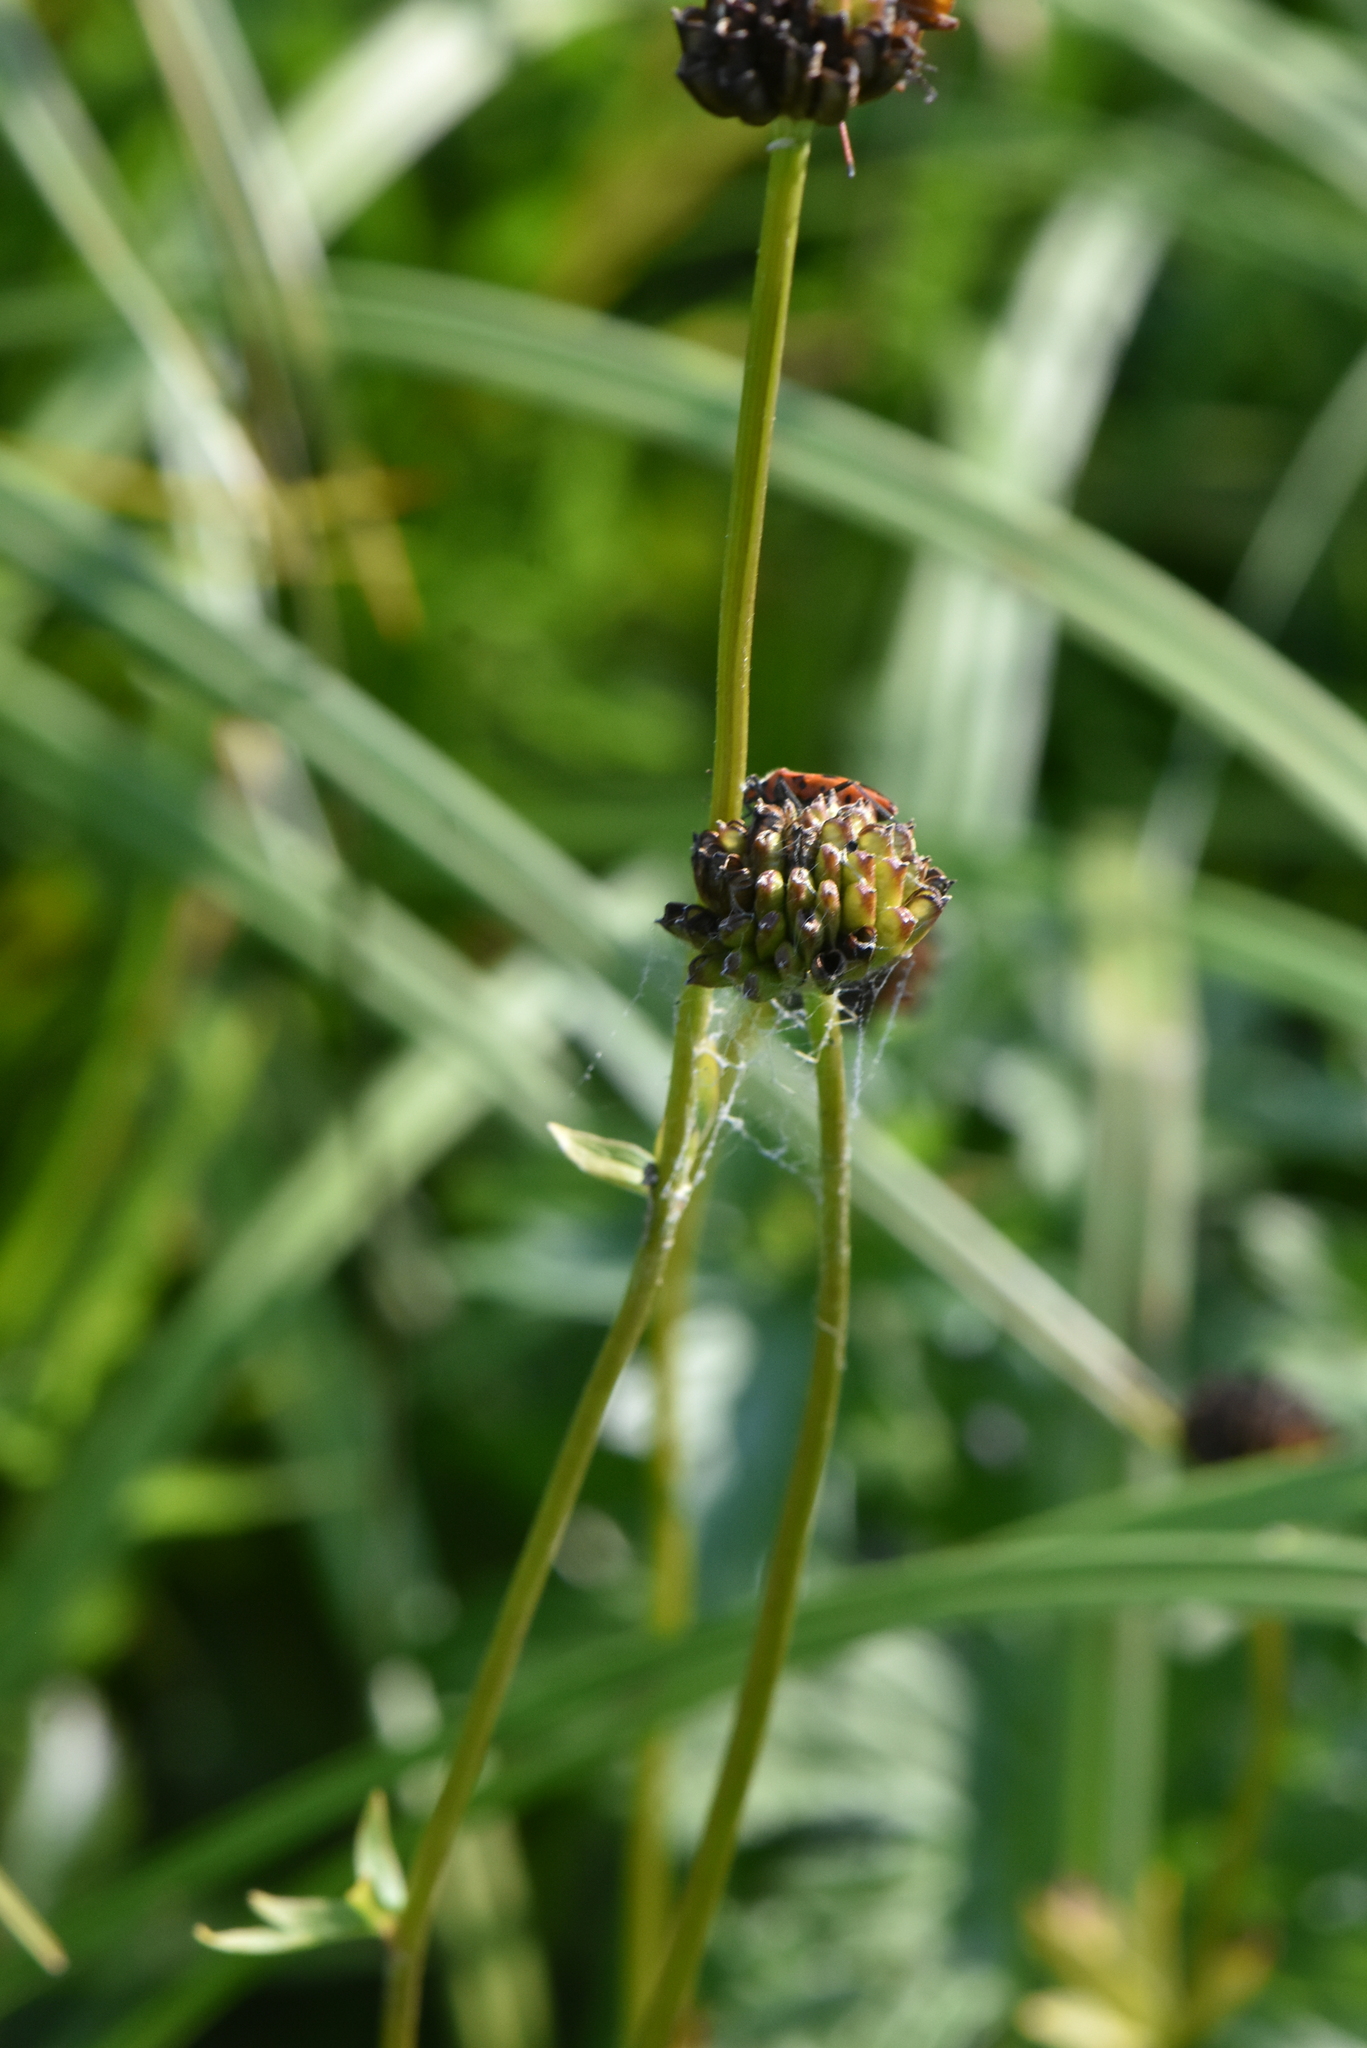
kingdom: Plantae
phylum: Tracheophyta
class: Magnoliopsida
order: Ranunculales
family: Ranunculaceae
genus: Trollius
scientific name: Trollius europaeus
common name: European globeflower
